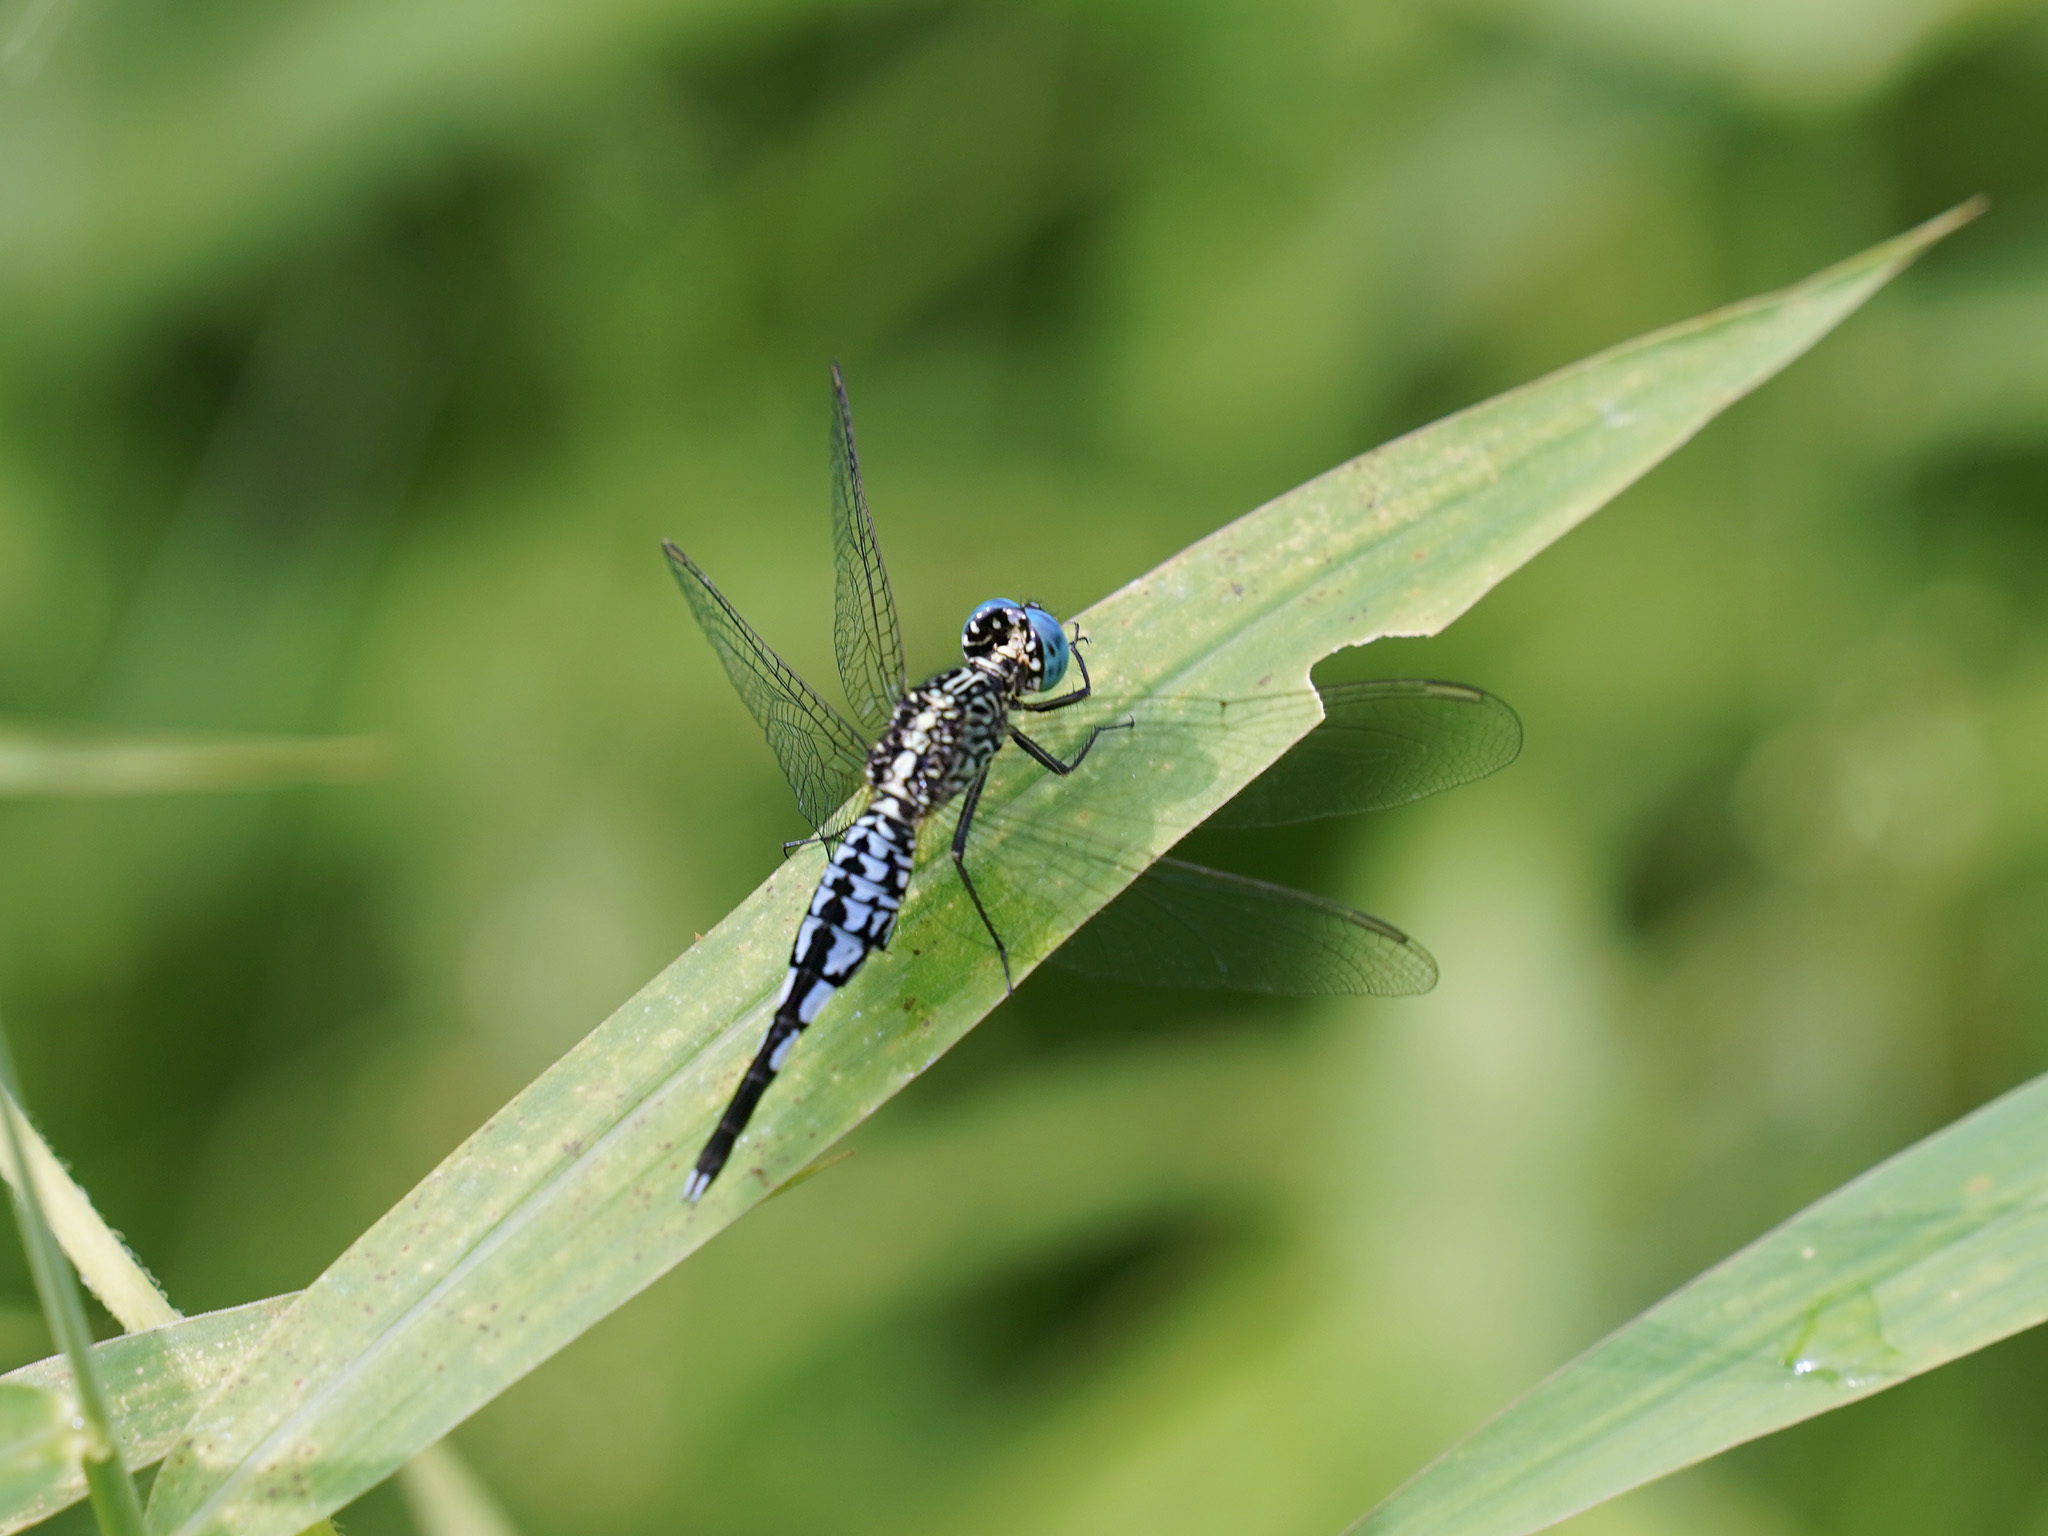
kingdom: Animalia
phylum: Arthropoda
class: Insecta
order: Odonata
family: Libellulidae
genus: Acisoma
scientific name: Acisoma panorpoides
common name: Asian pintail
